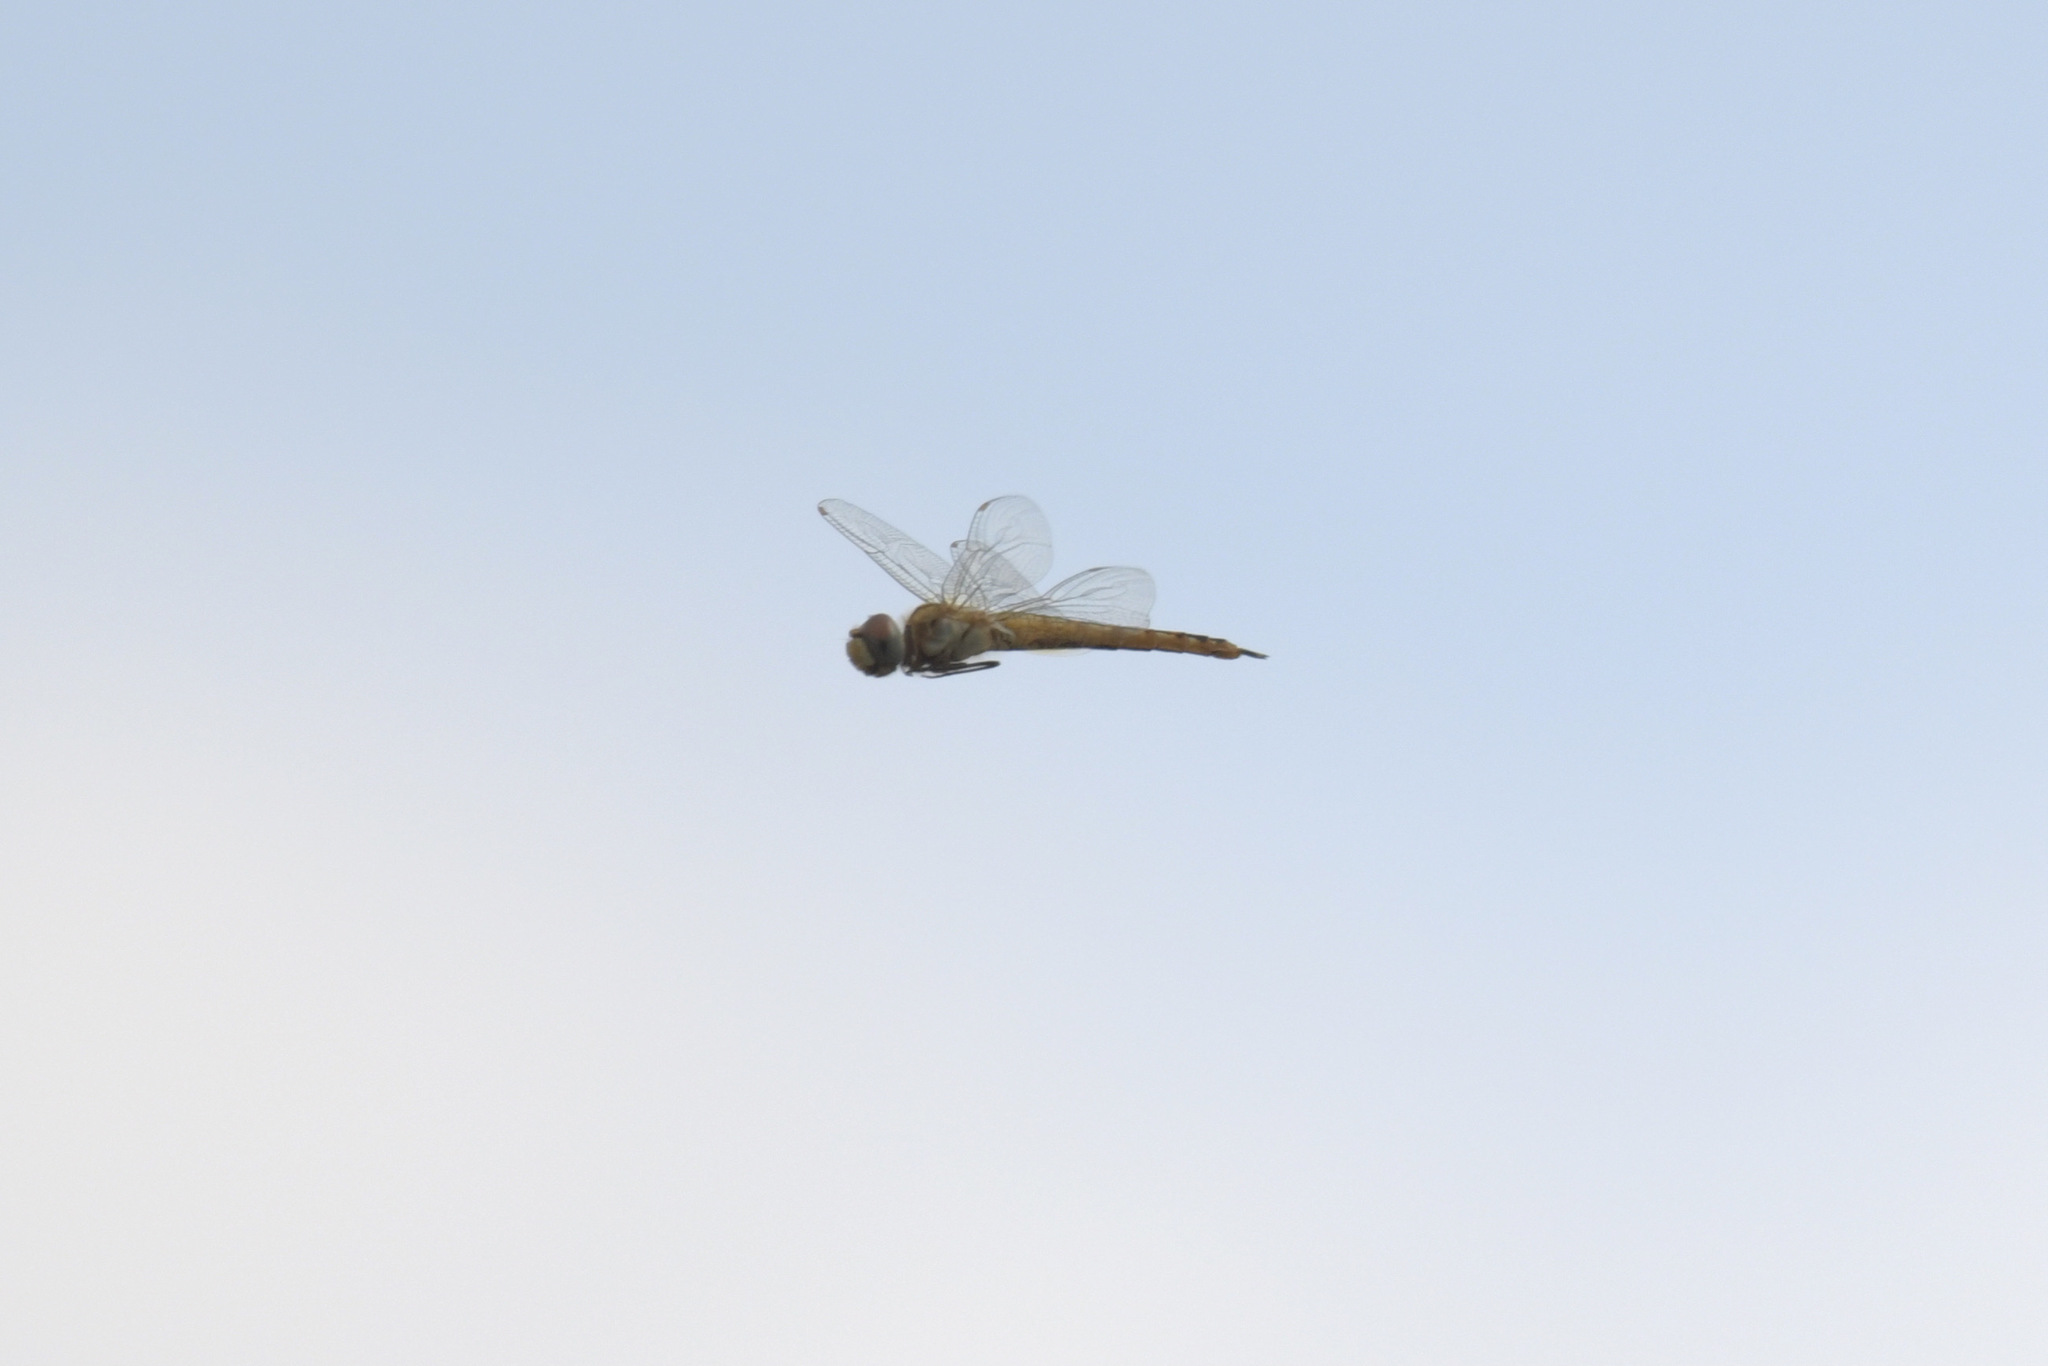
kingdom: Animalia
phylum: Arthropoda
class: Insecta
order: Odonata
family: Libellulidae
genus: Pantala
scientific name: Pantala flavescens
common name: Wandering glider
